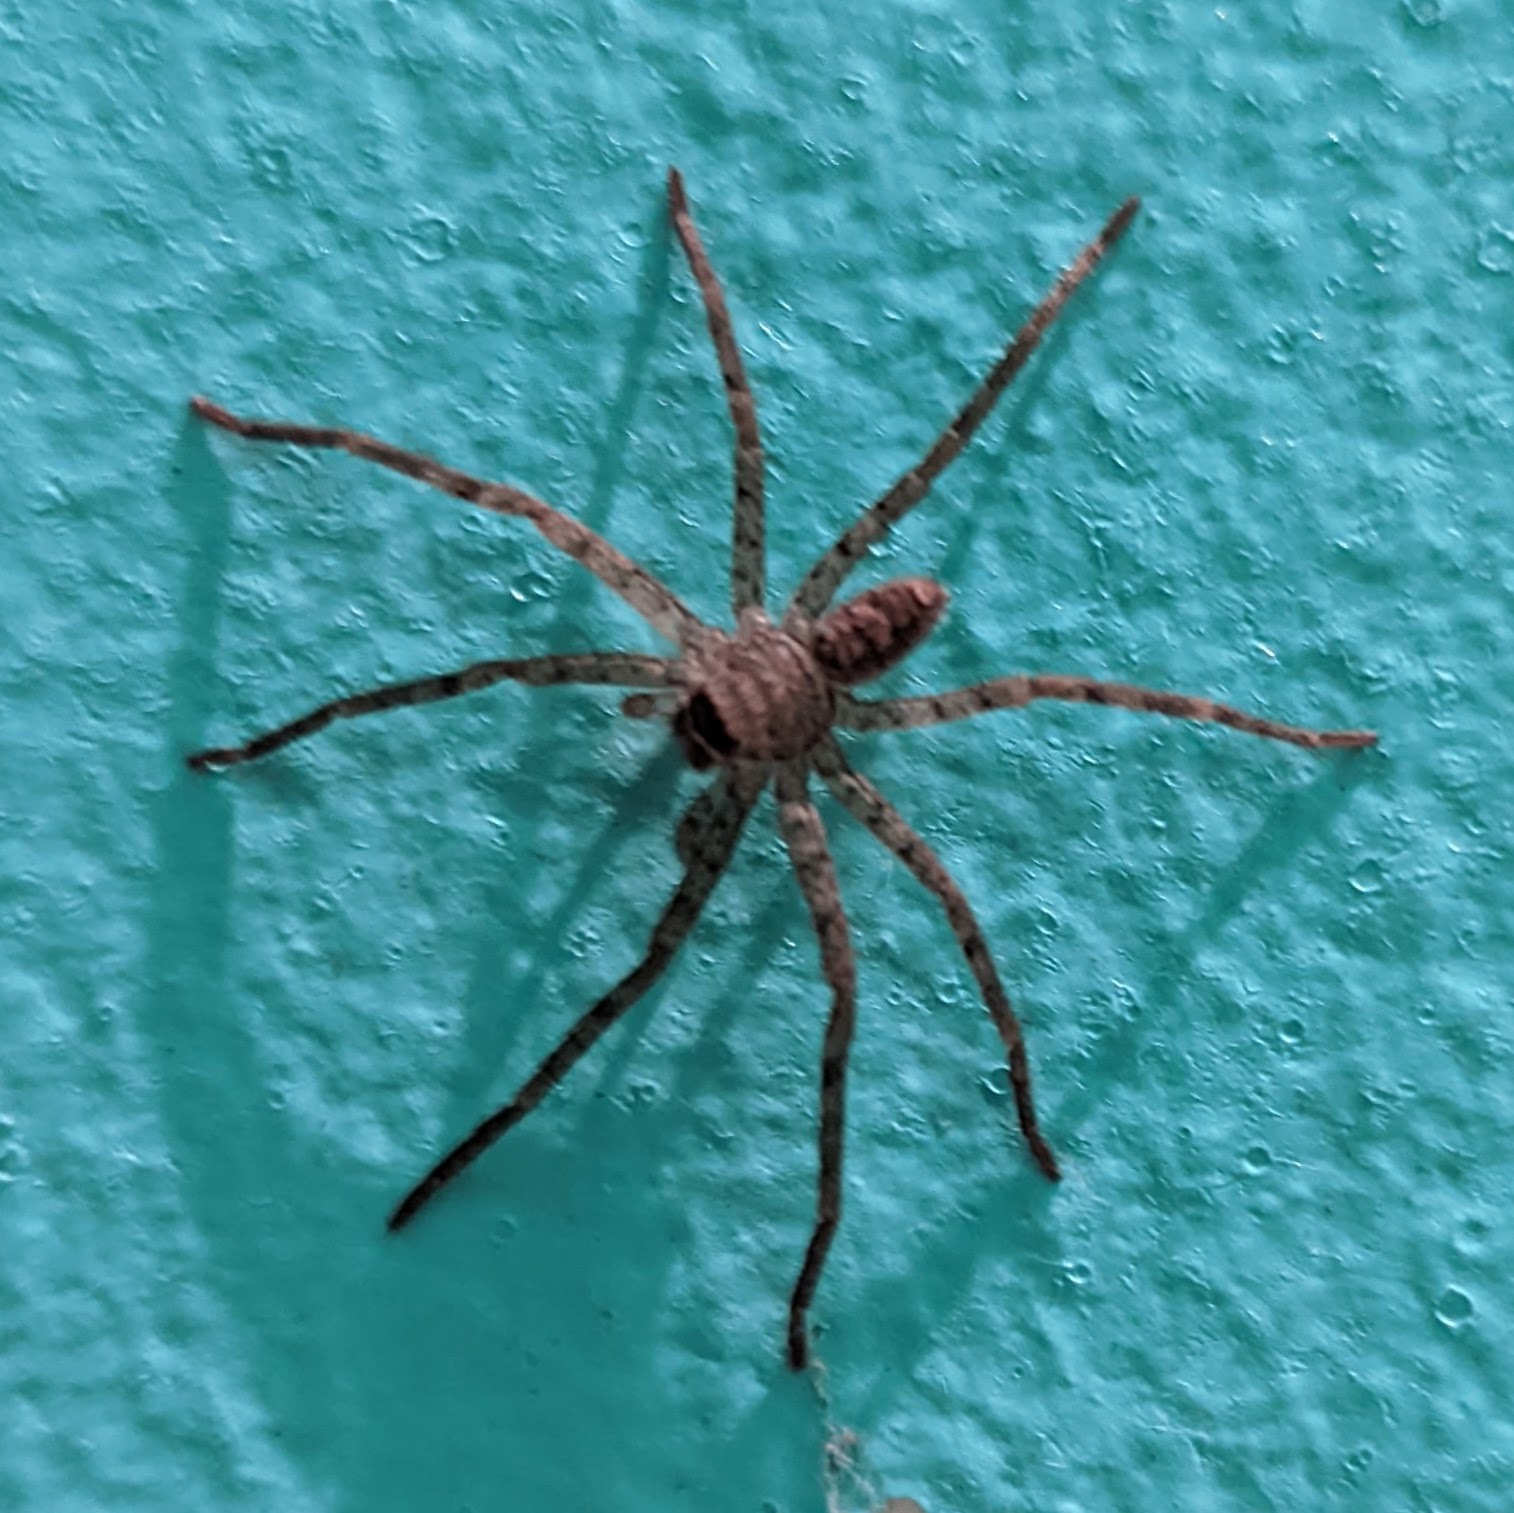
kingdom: Animalia
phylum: Arthropoda
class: Arachnida
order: Araneae
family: Sparassidae
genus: Heteropoda
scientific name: Heteropoda venatoria
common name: Huntsman spider
